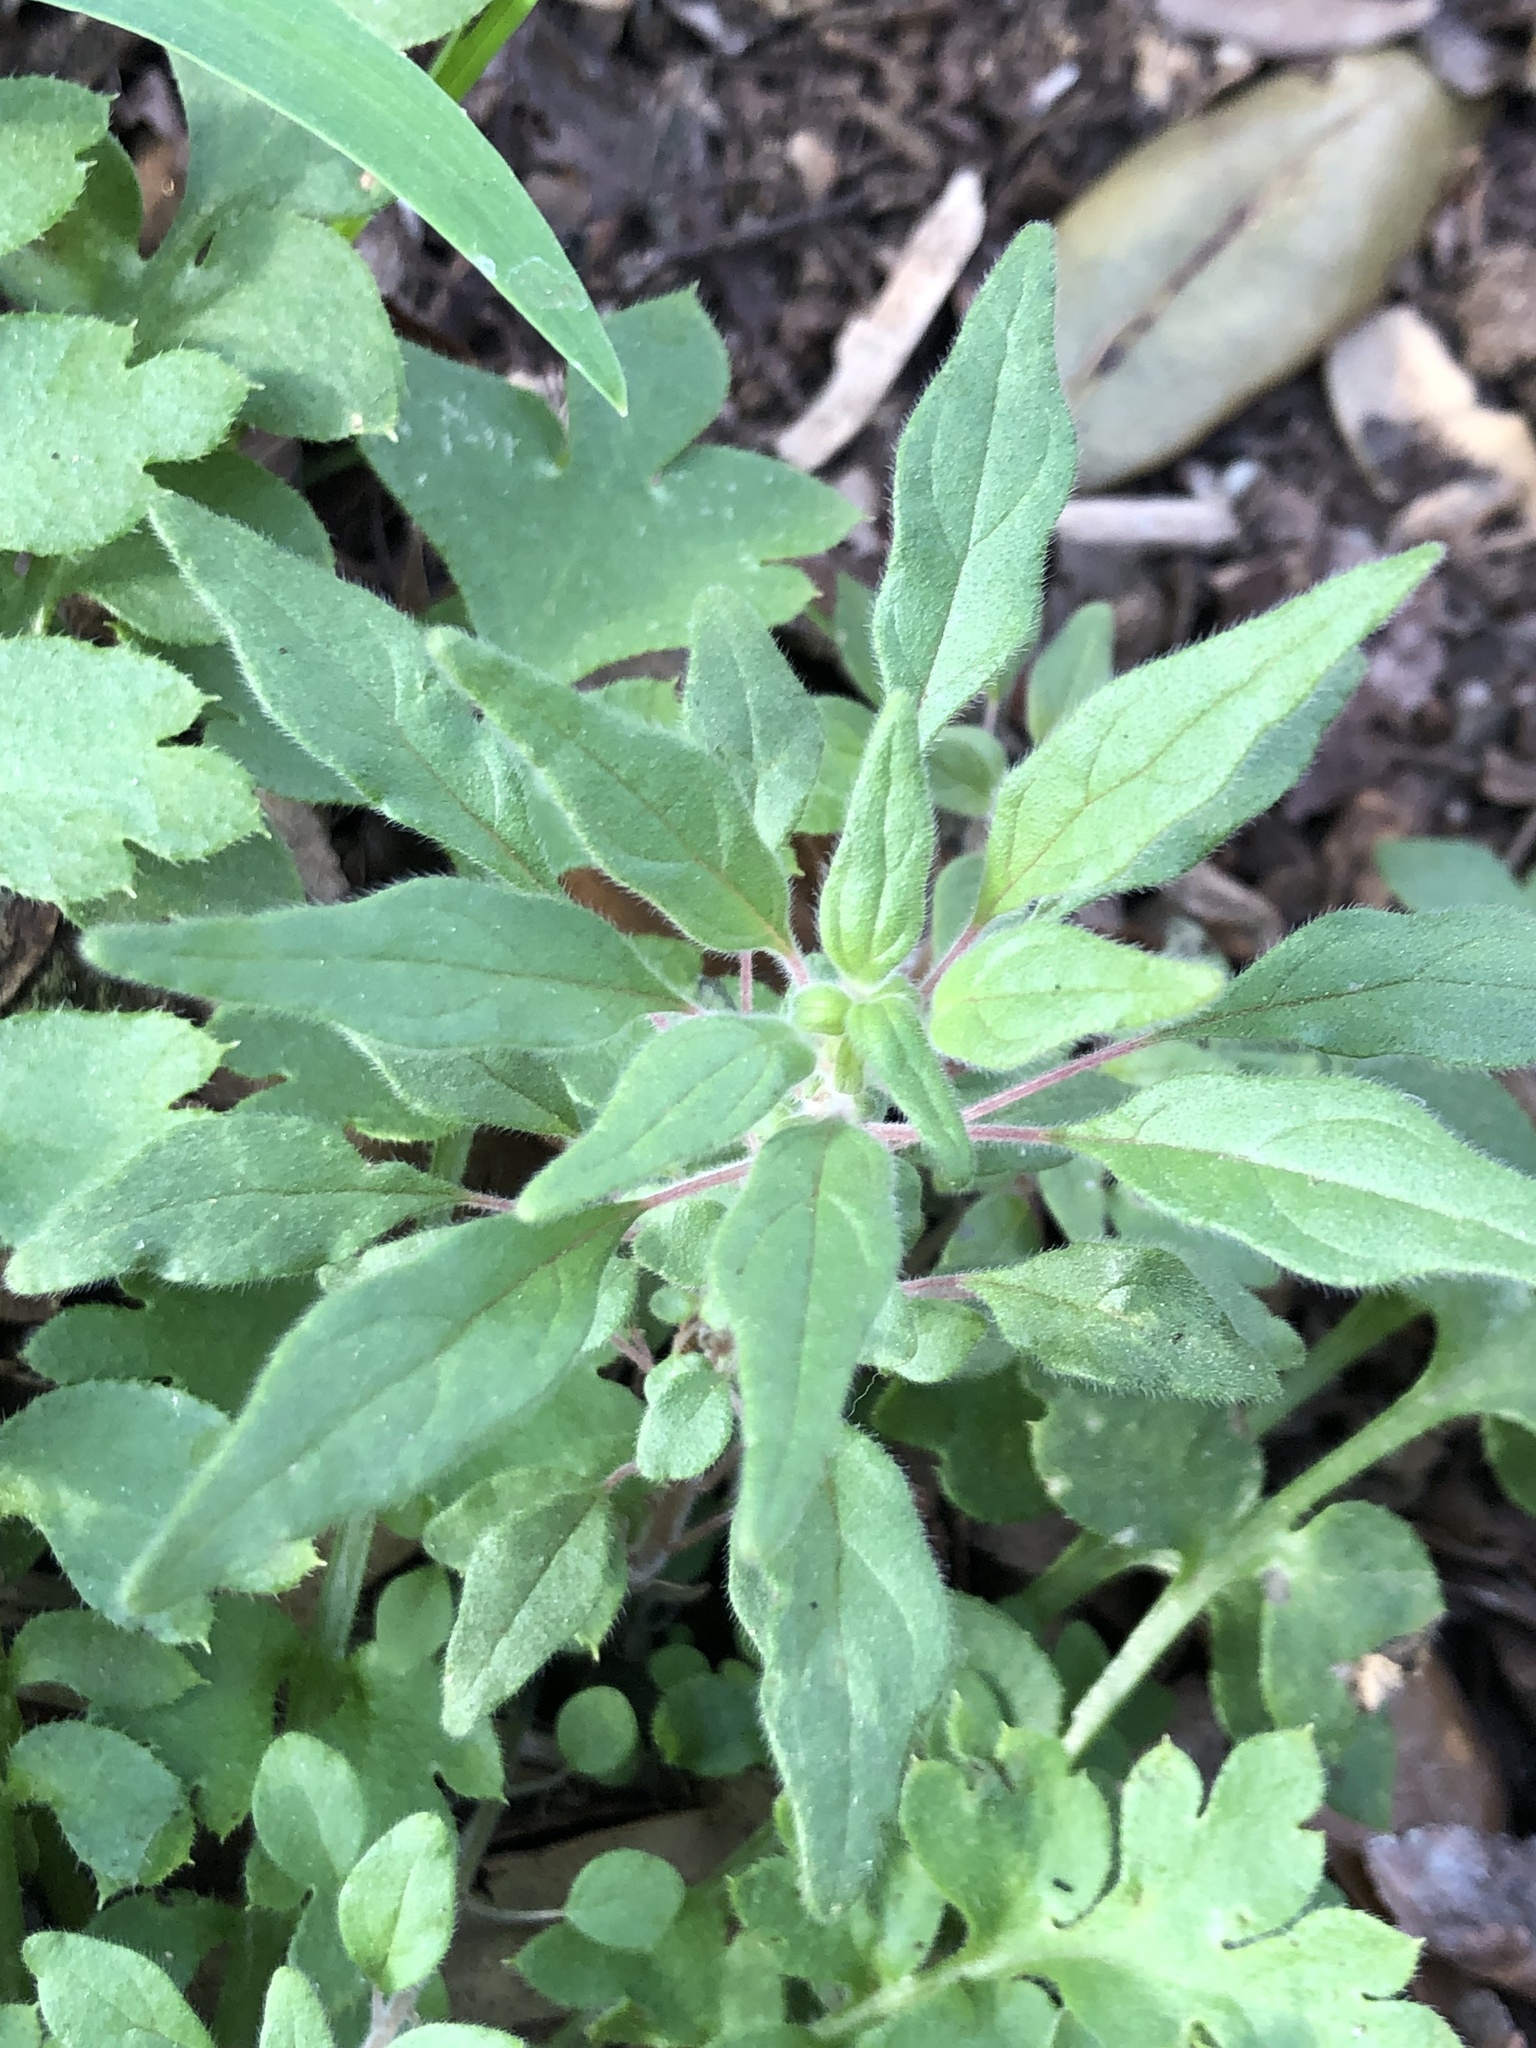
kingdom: Plantae
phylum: Tracheophyta
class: Magnoliopsida
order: Rosales
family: Urticaceae
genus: Parietaria
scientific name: Parietaria pensylvanica
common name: Pennsylvania pellitory
